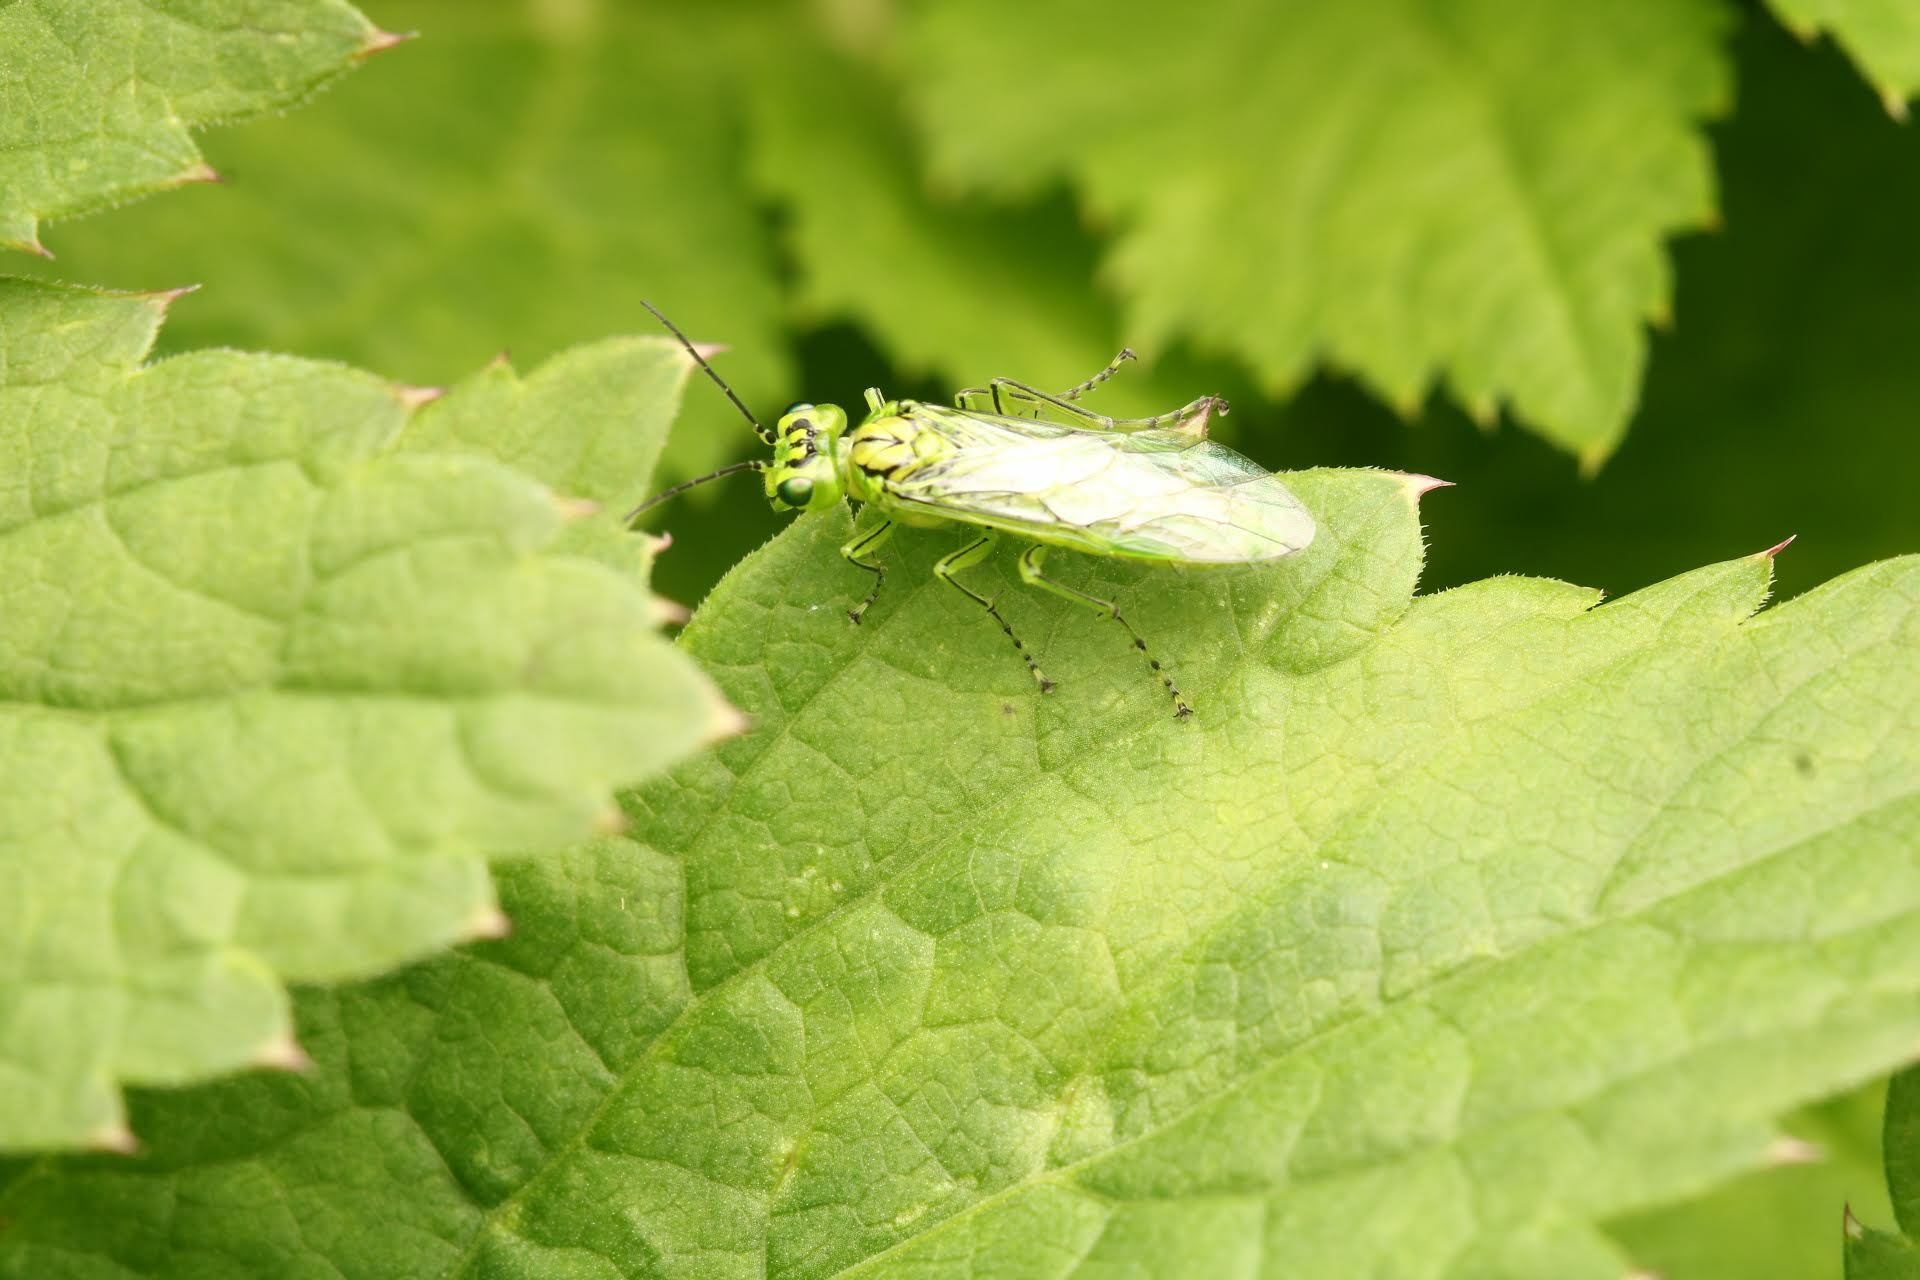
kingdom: Animalia
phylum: Arthropoda
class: Insecta
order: Hymenoptera
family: Tenthredinidae
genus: Rhogogaster
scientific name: Rhogogaster punctulata
